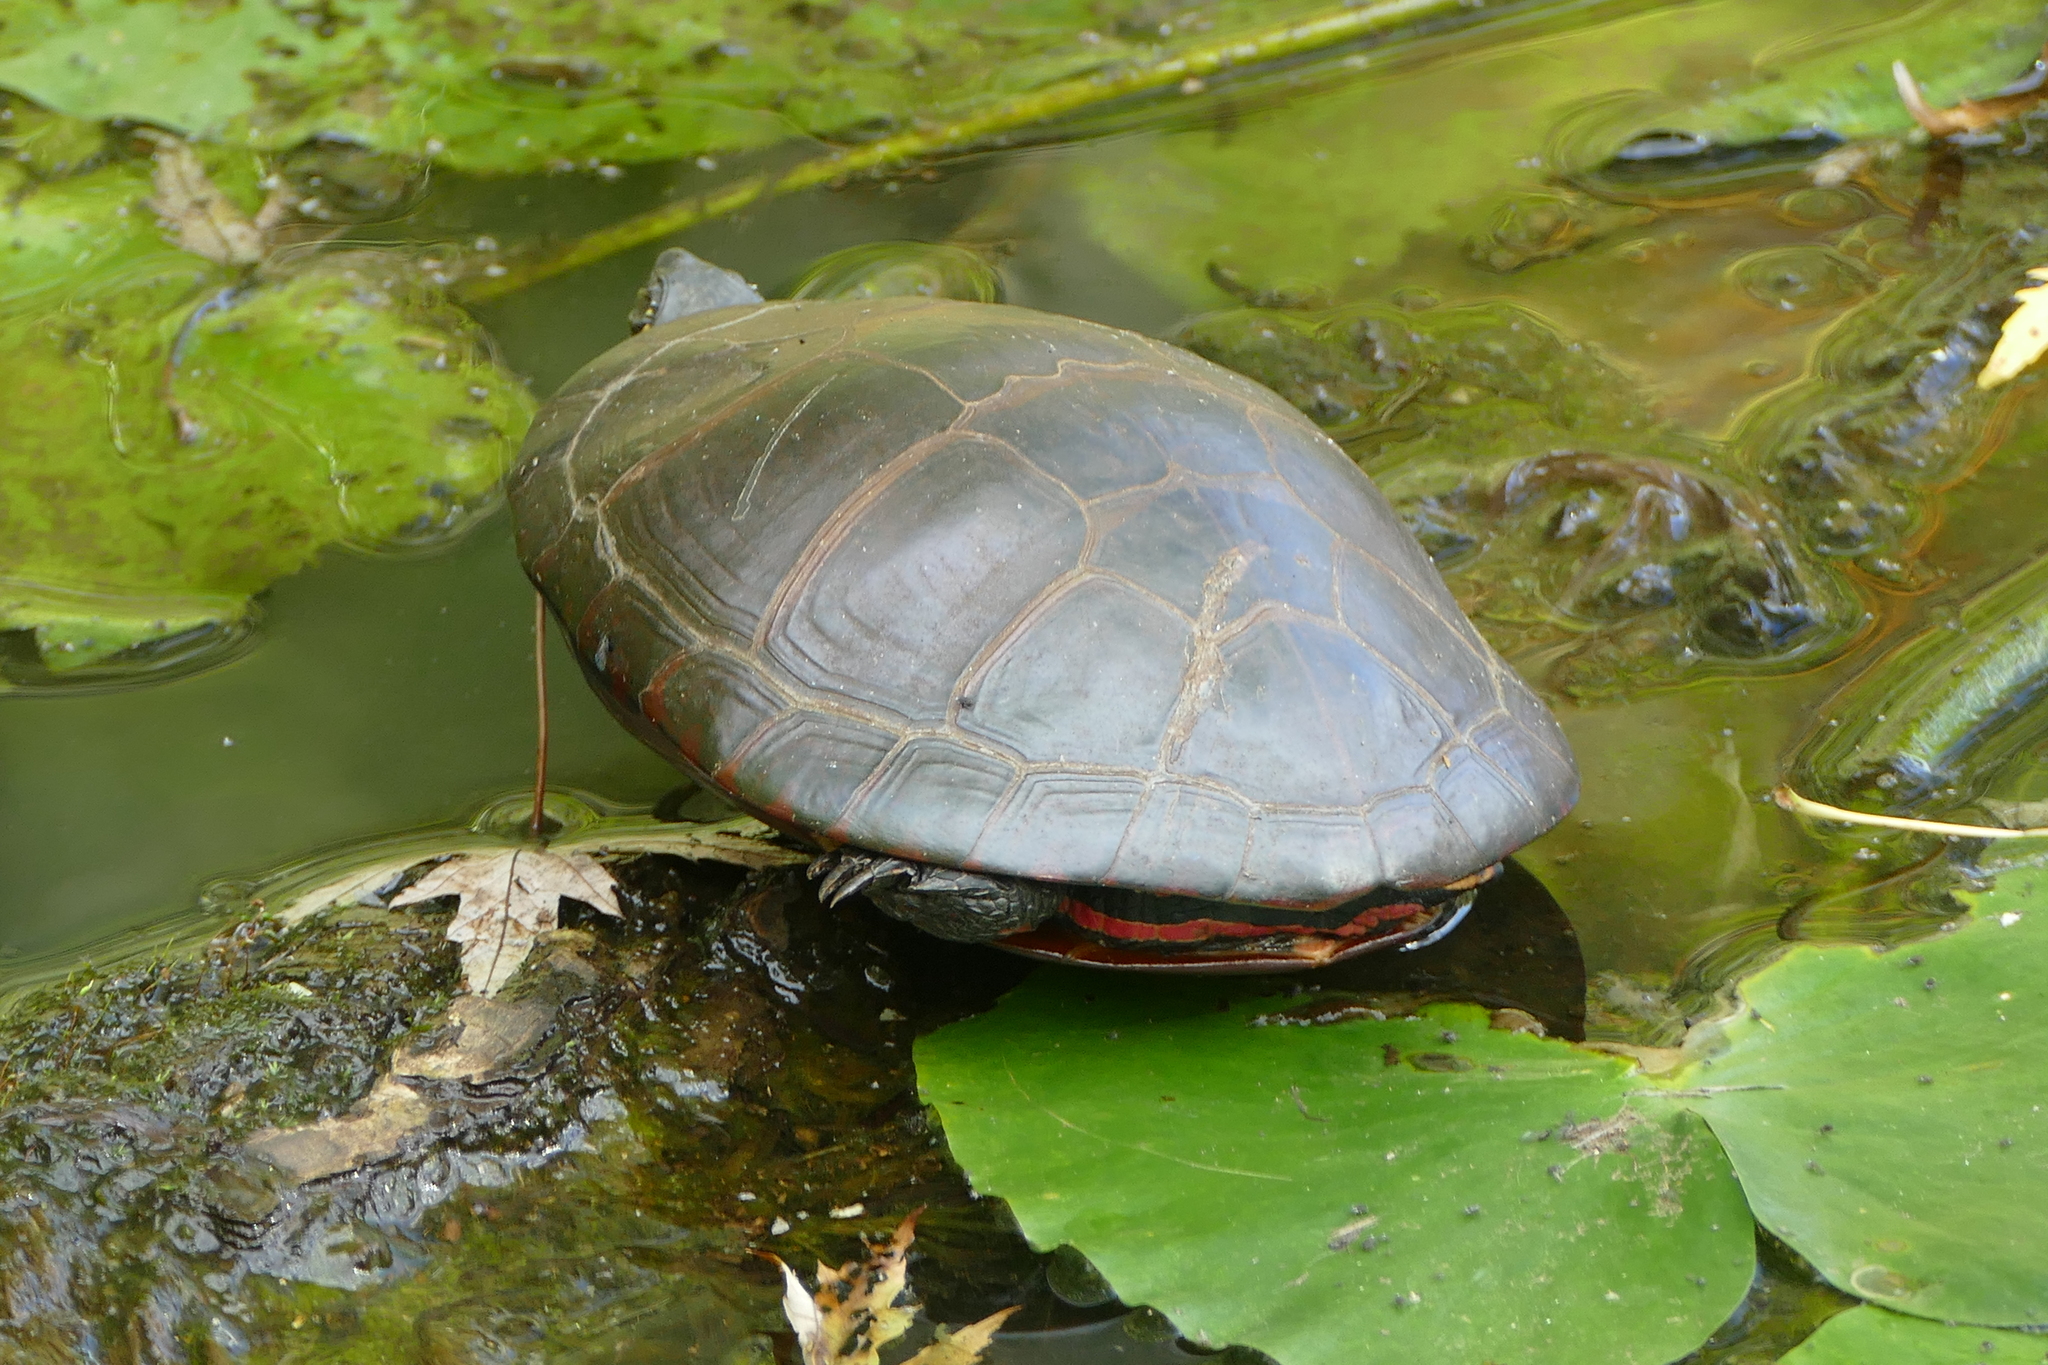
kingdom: Animalia
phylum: Chordata
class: Testudines
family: Emydidae
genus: Chrysemys
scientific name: Chrysemys picta
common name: Painted turtle
